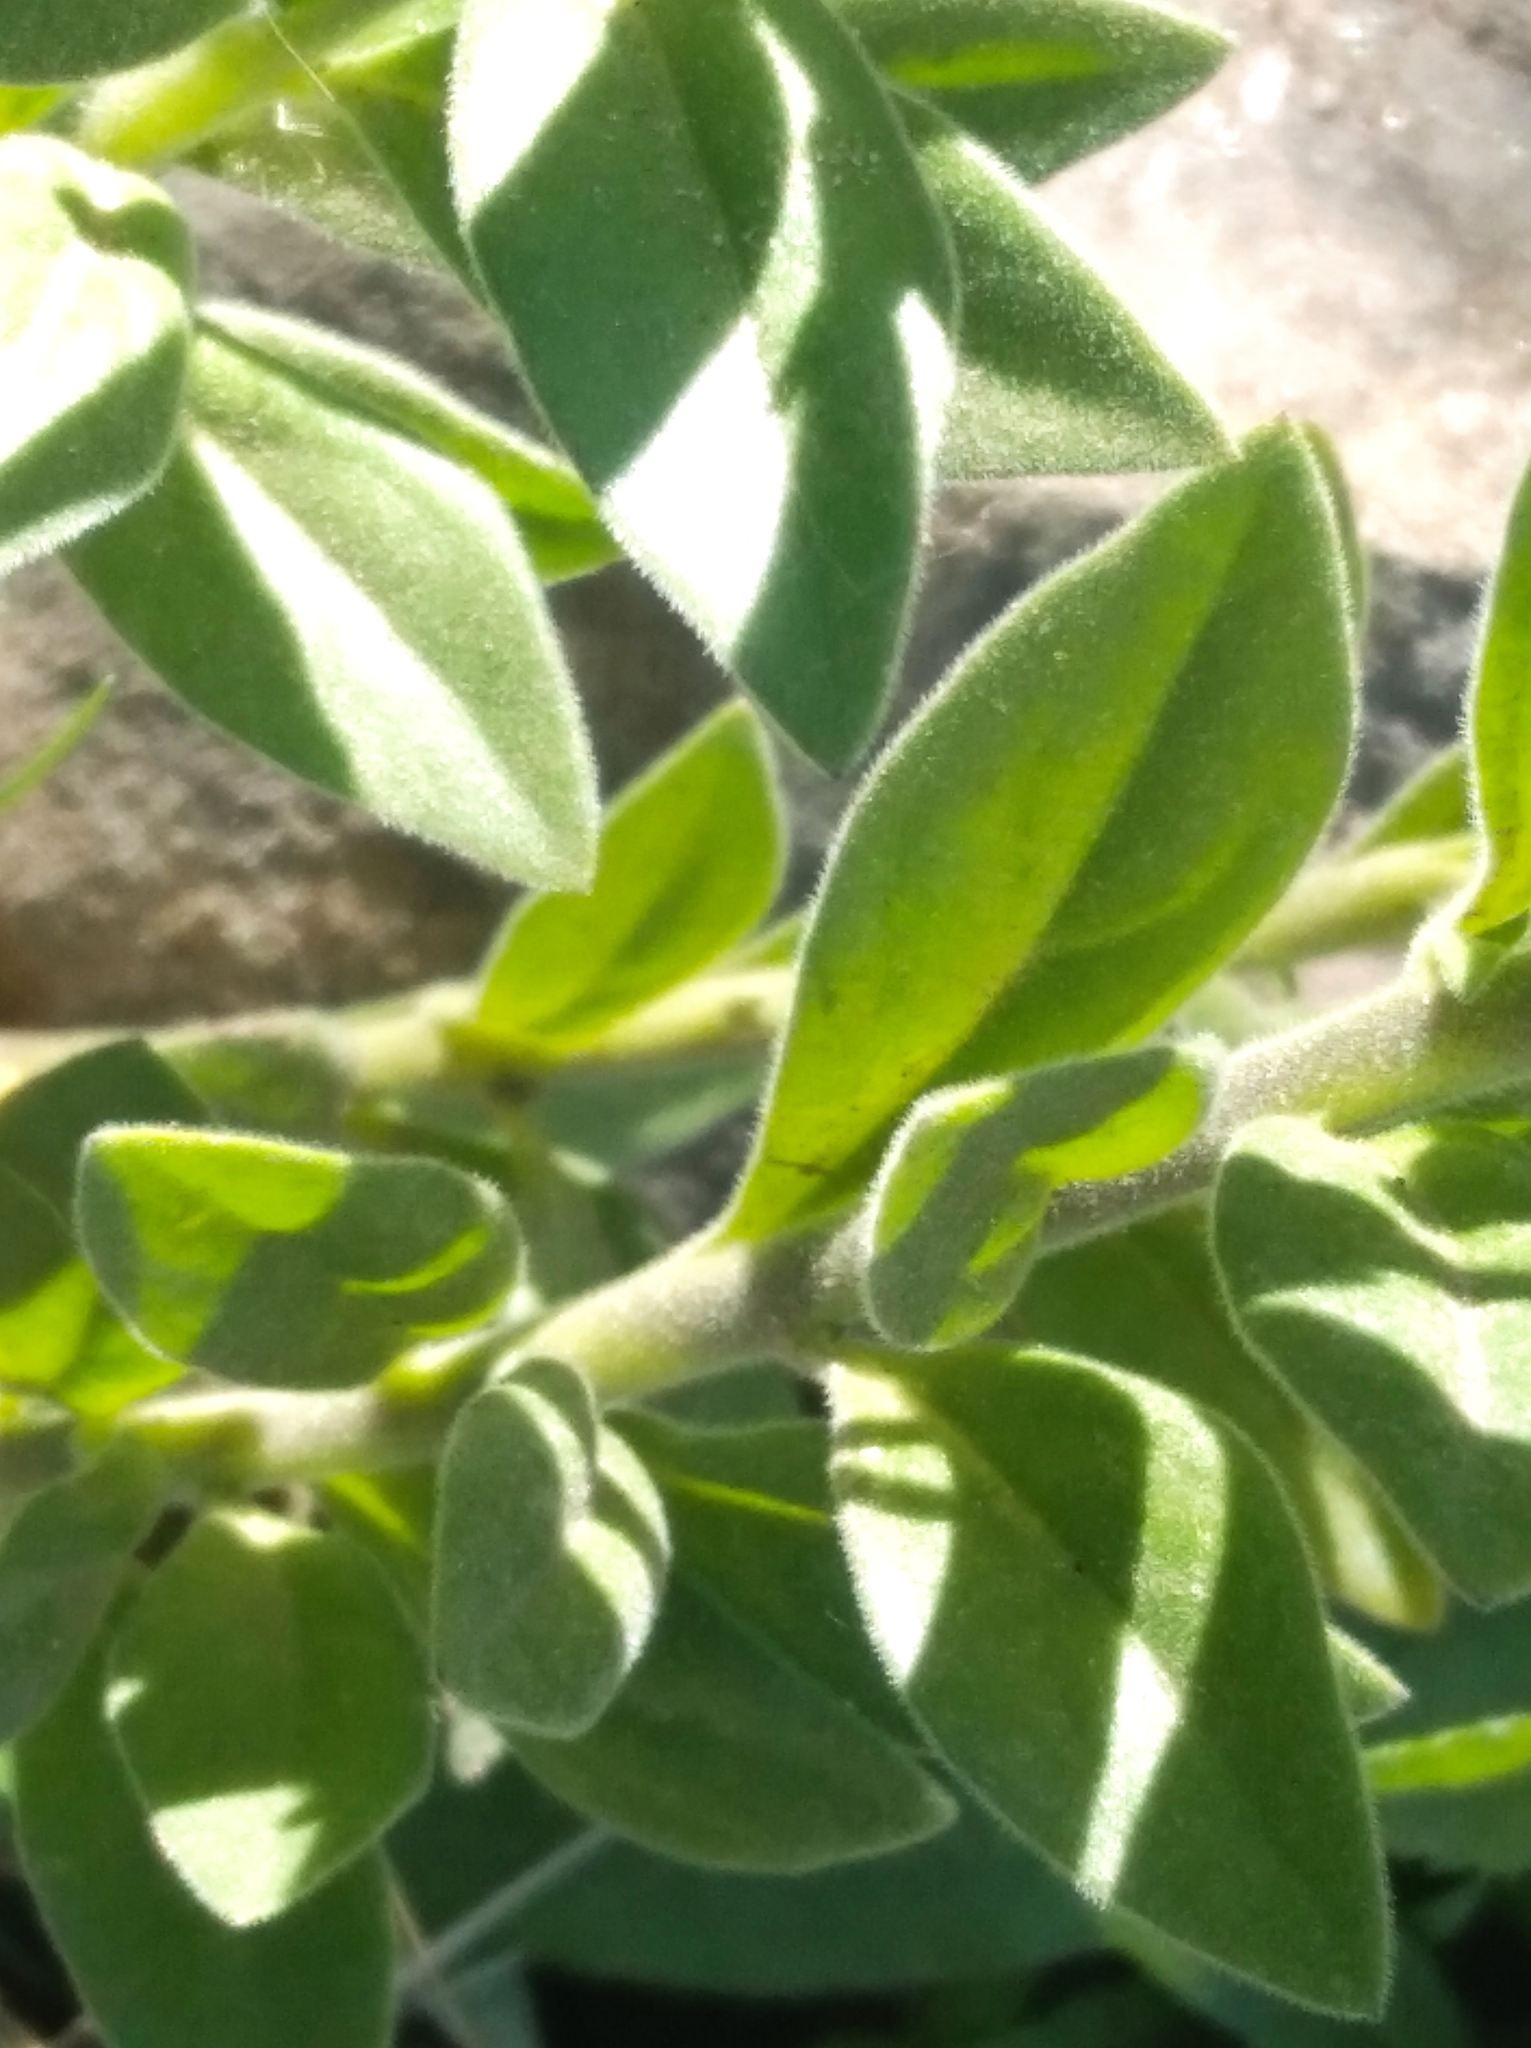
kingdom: Plantae
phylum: Tracheophyta
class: Magnoliopsida
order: Solanales
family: Solanaceae
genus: Nierembergia
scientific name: Nierembergia browallioides
